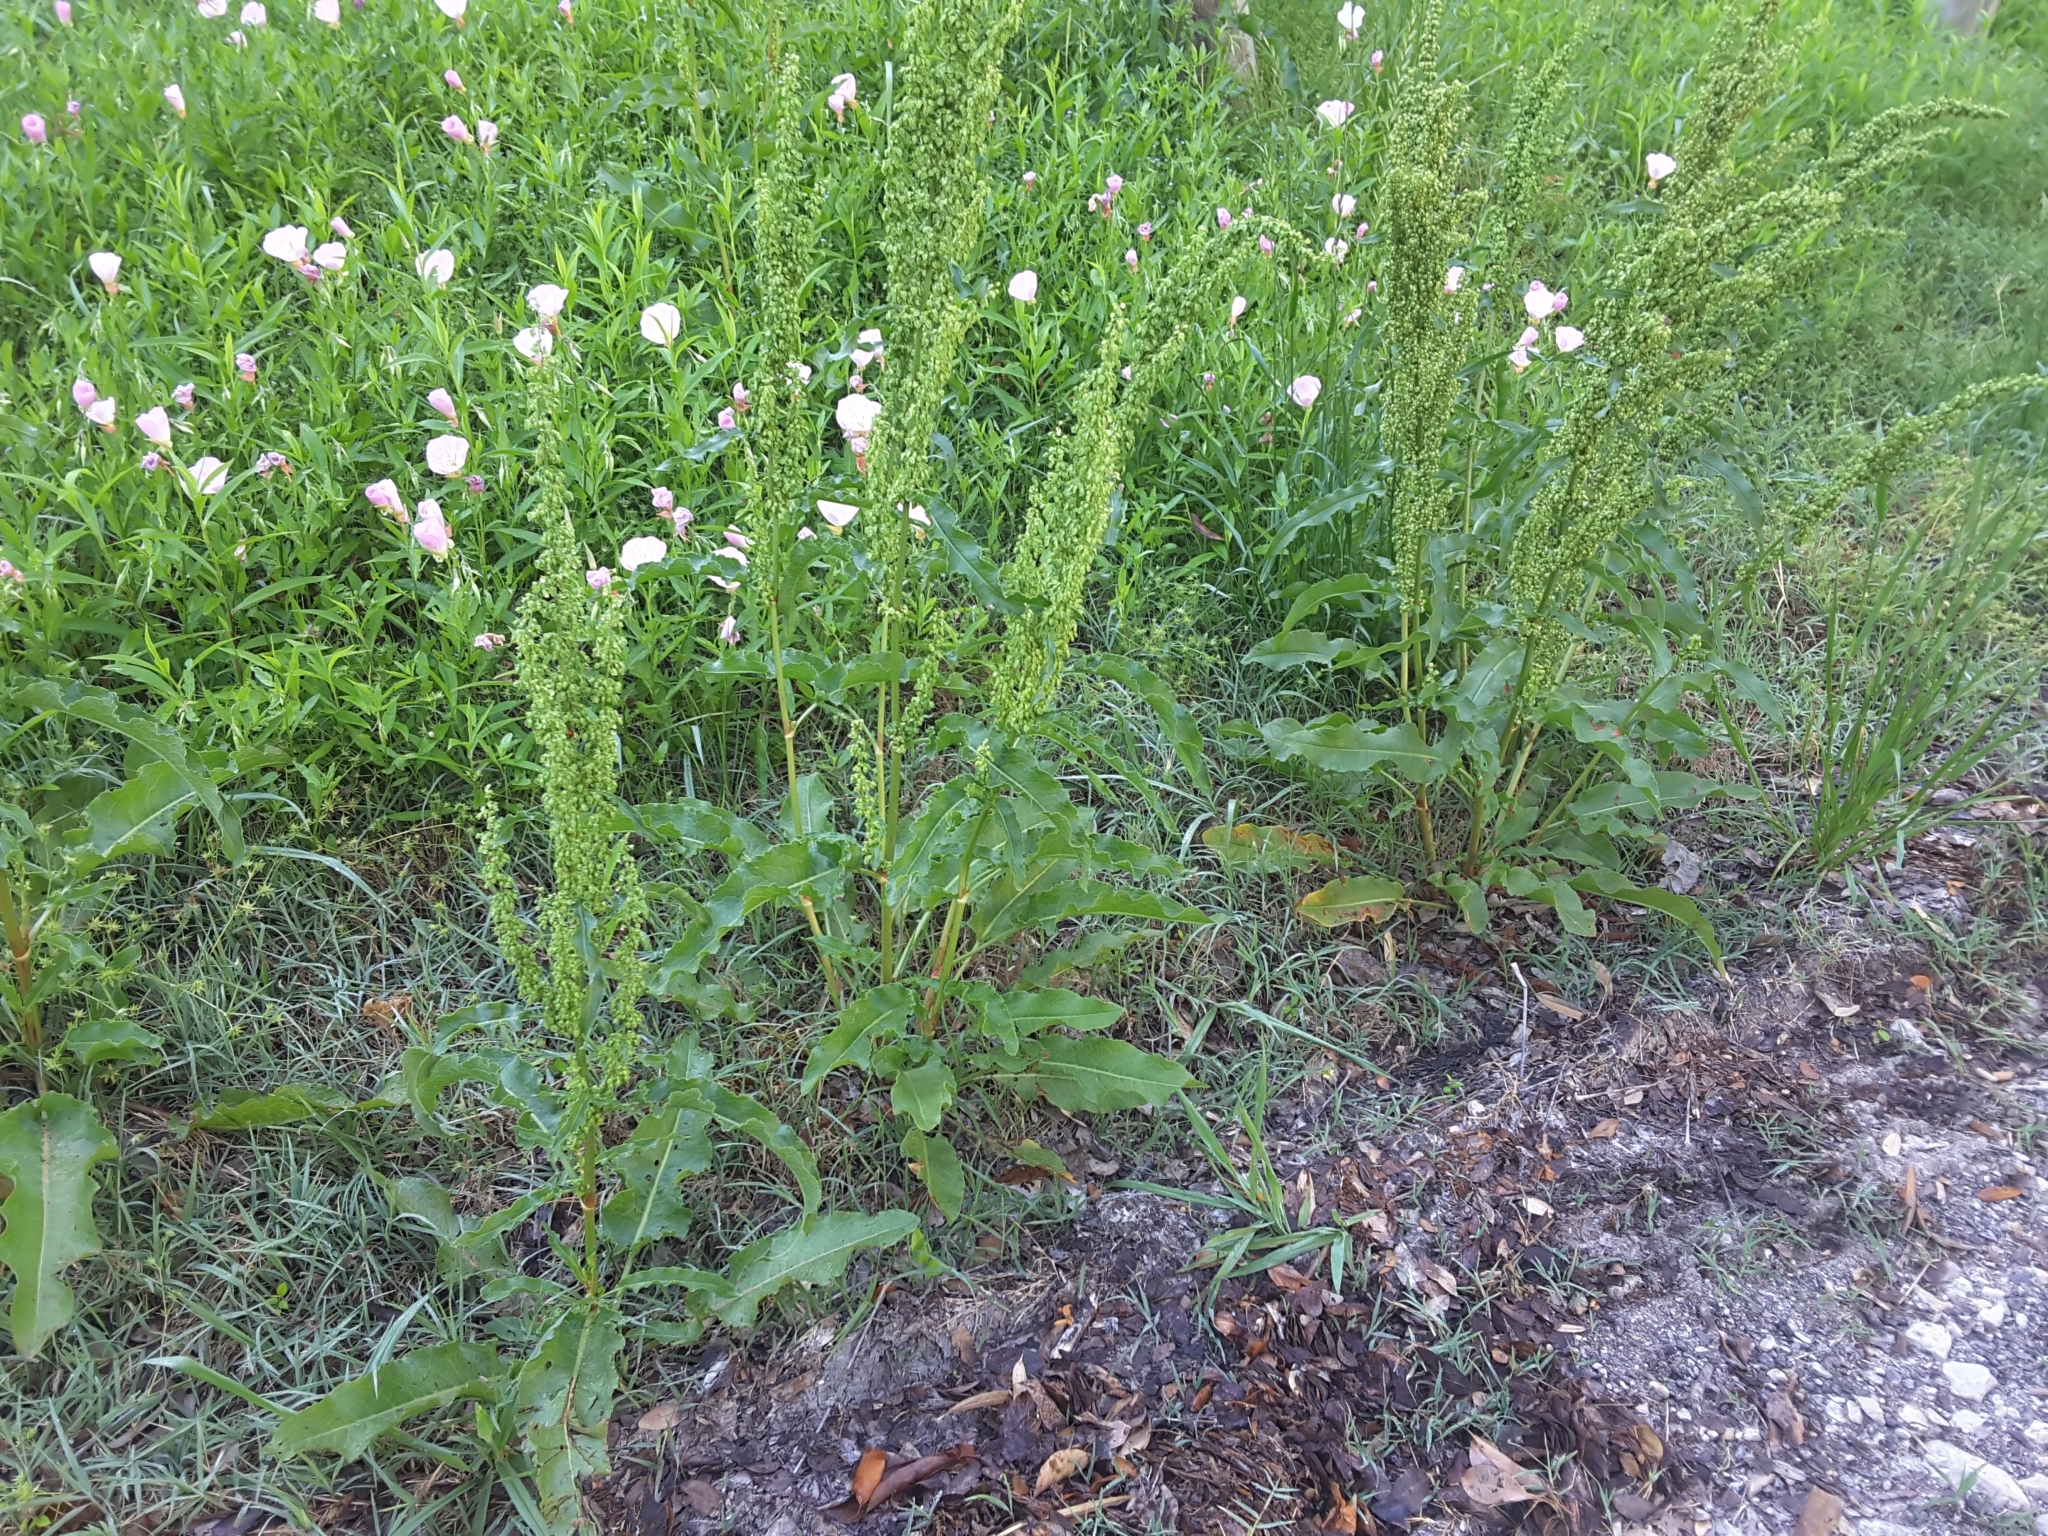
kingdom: Plantae
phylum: Tracheophyta
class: Magnoliopsida
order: Caryophyllales
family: Polygonaceae
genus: Rumex
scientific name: Rumex crispus
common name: Curled dock
